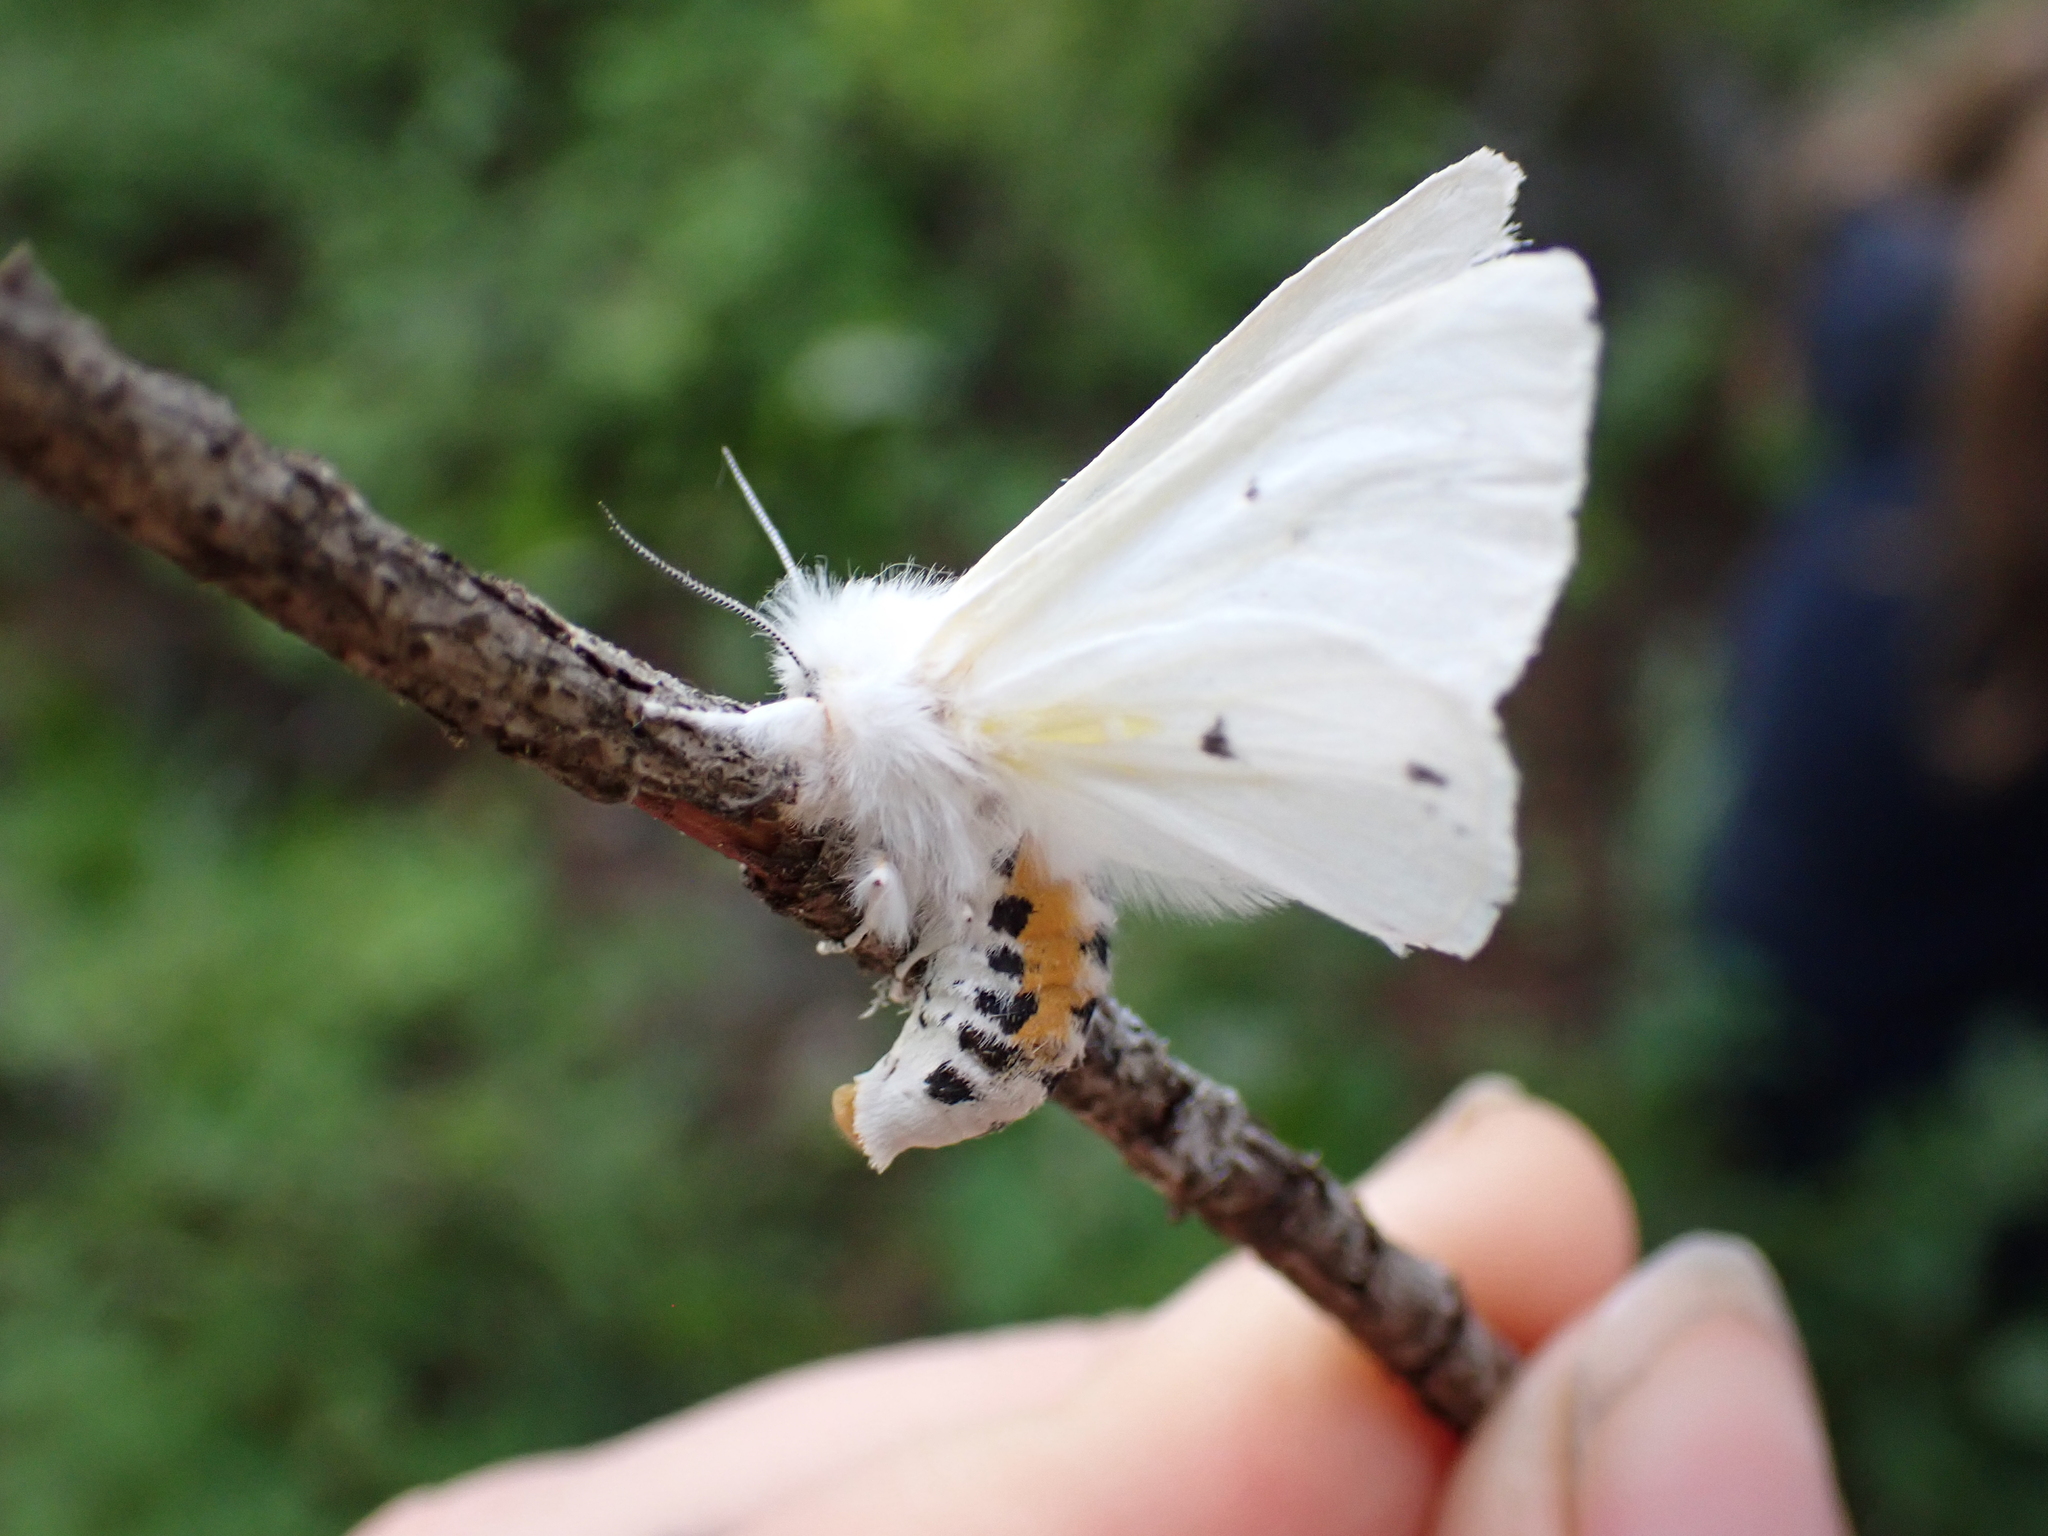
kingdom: Animalia
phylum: Arthropoda
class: Insecta
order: Lepidoptera
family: Erebidae
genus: Spilosoma
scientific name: Spilosoma virginica
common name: Virginia tiger moth
